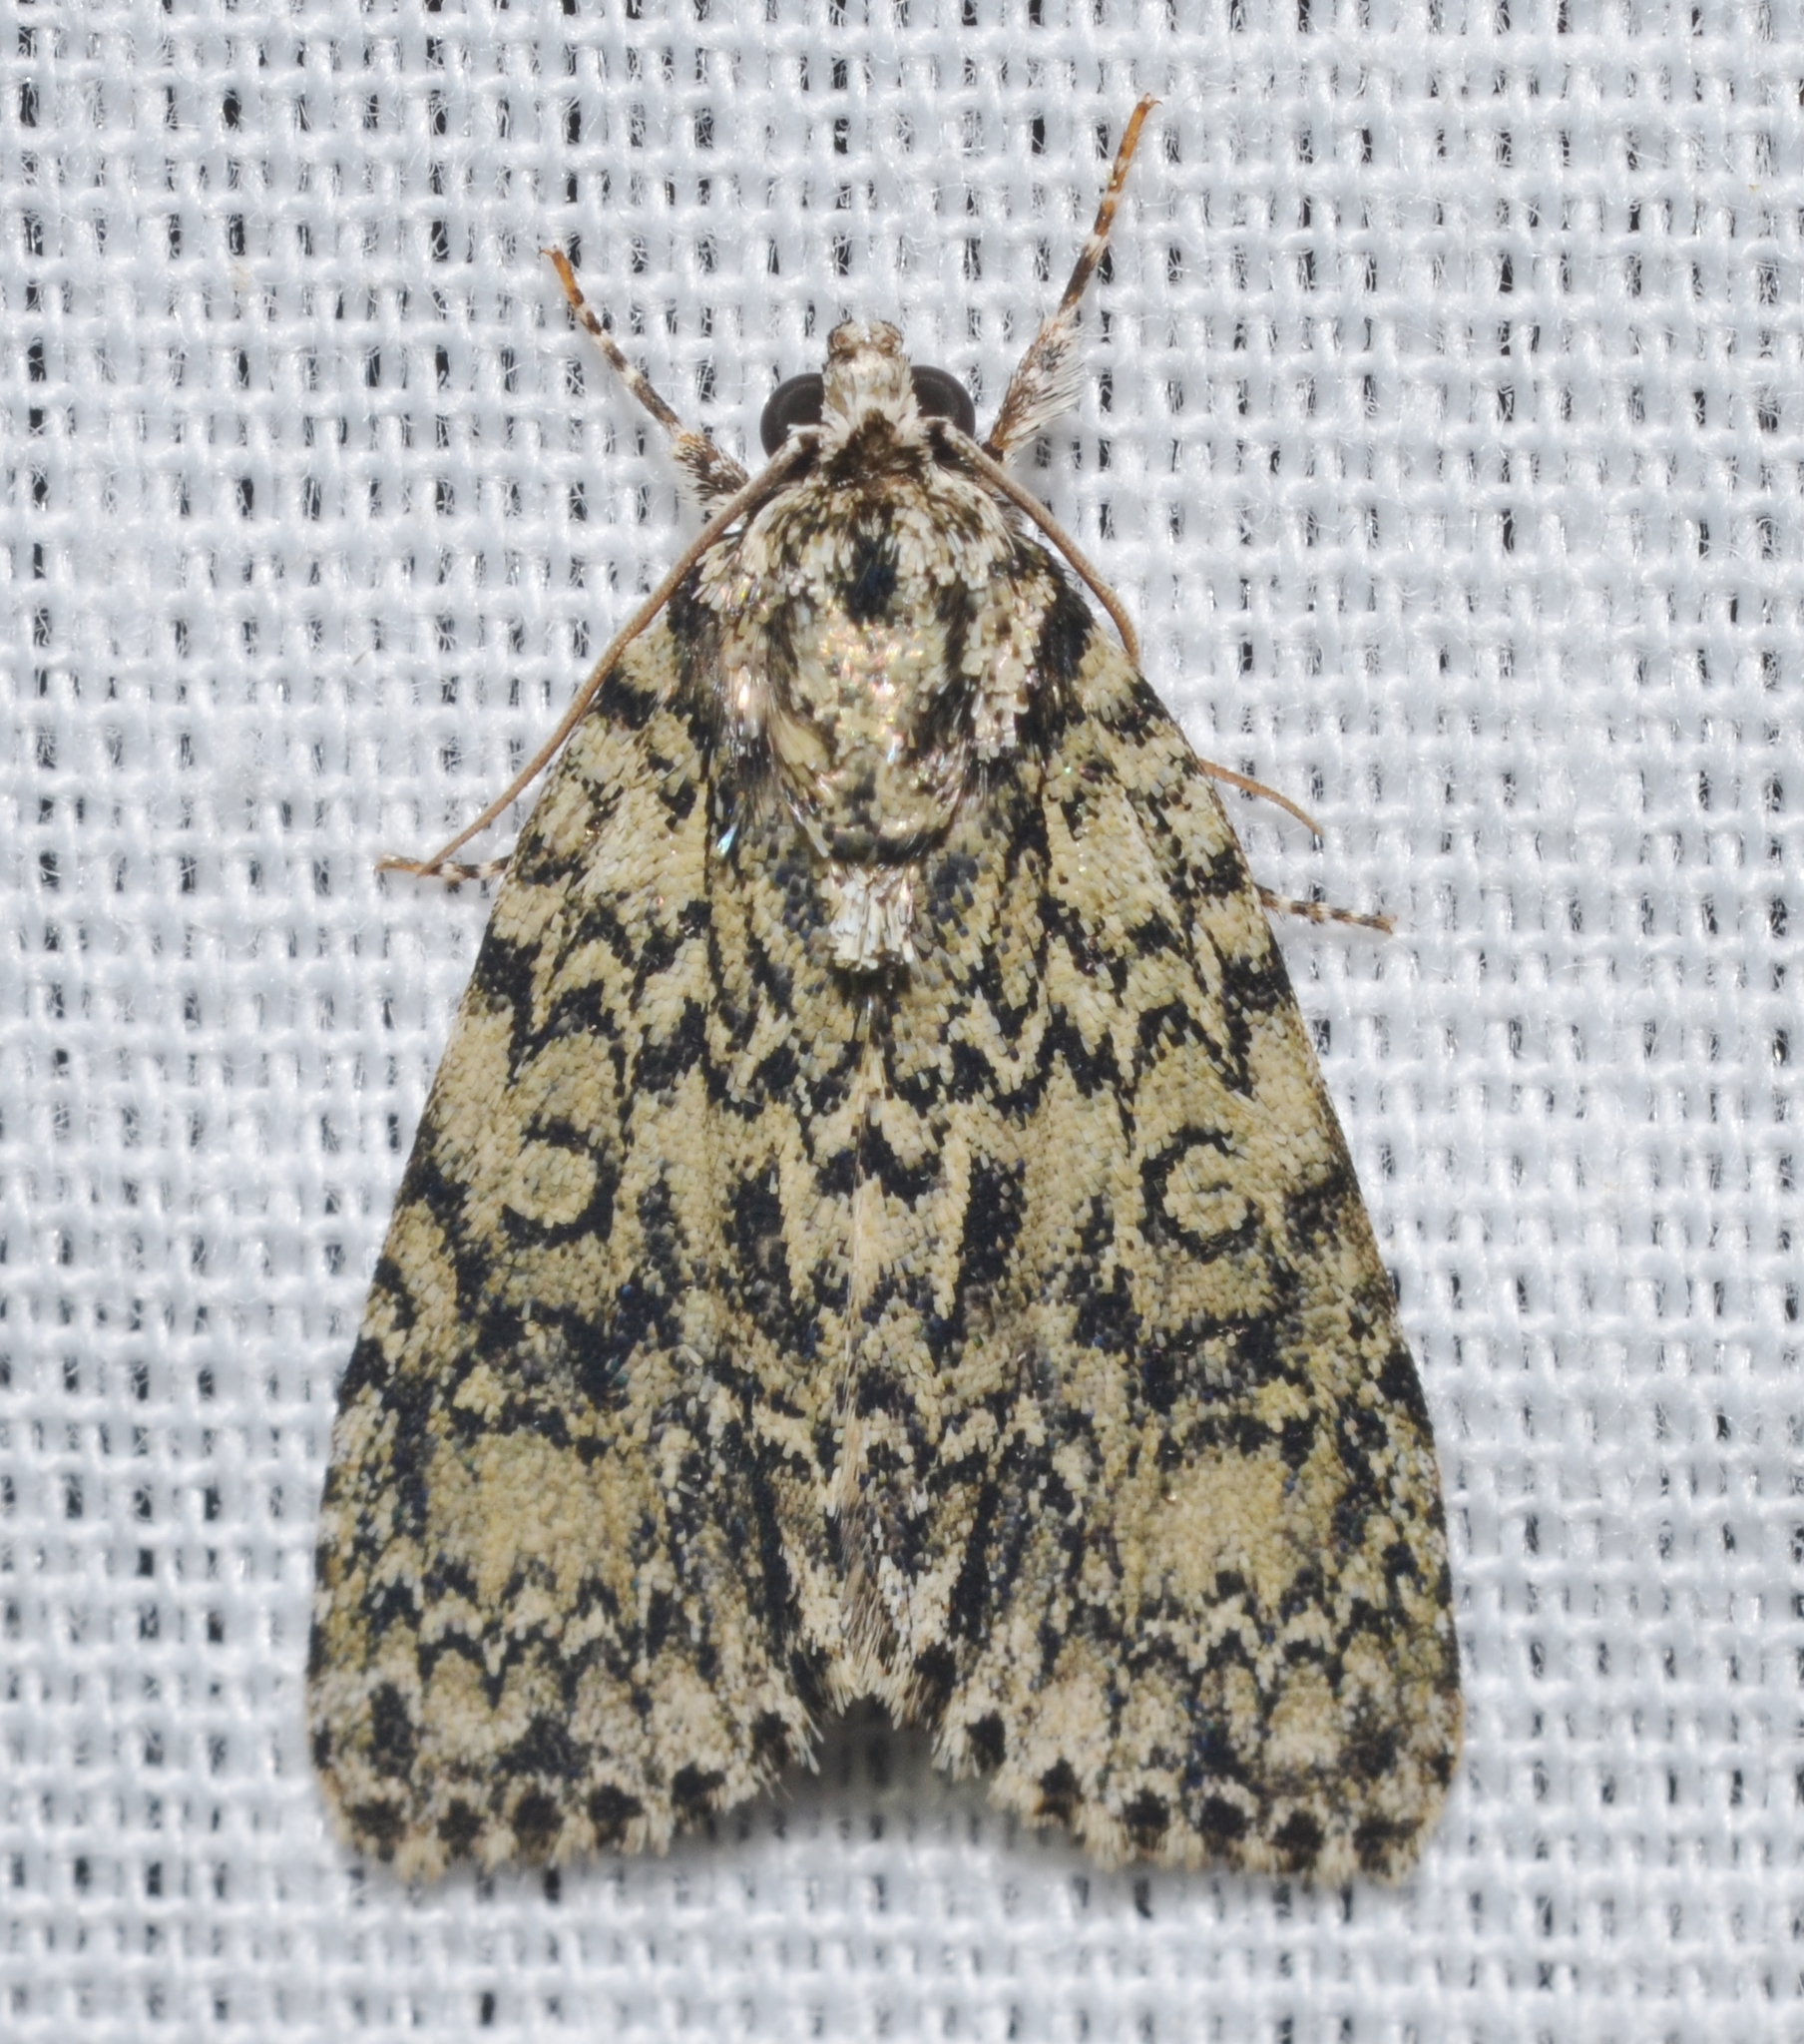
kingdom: Animalia
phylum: Arthropoda
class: Insecta
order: Lepidoptera
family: Noctuidae
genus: Acronicta
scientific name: Acronicta heitzmani
